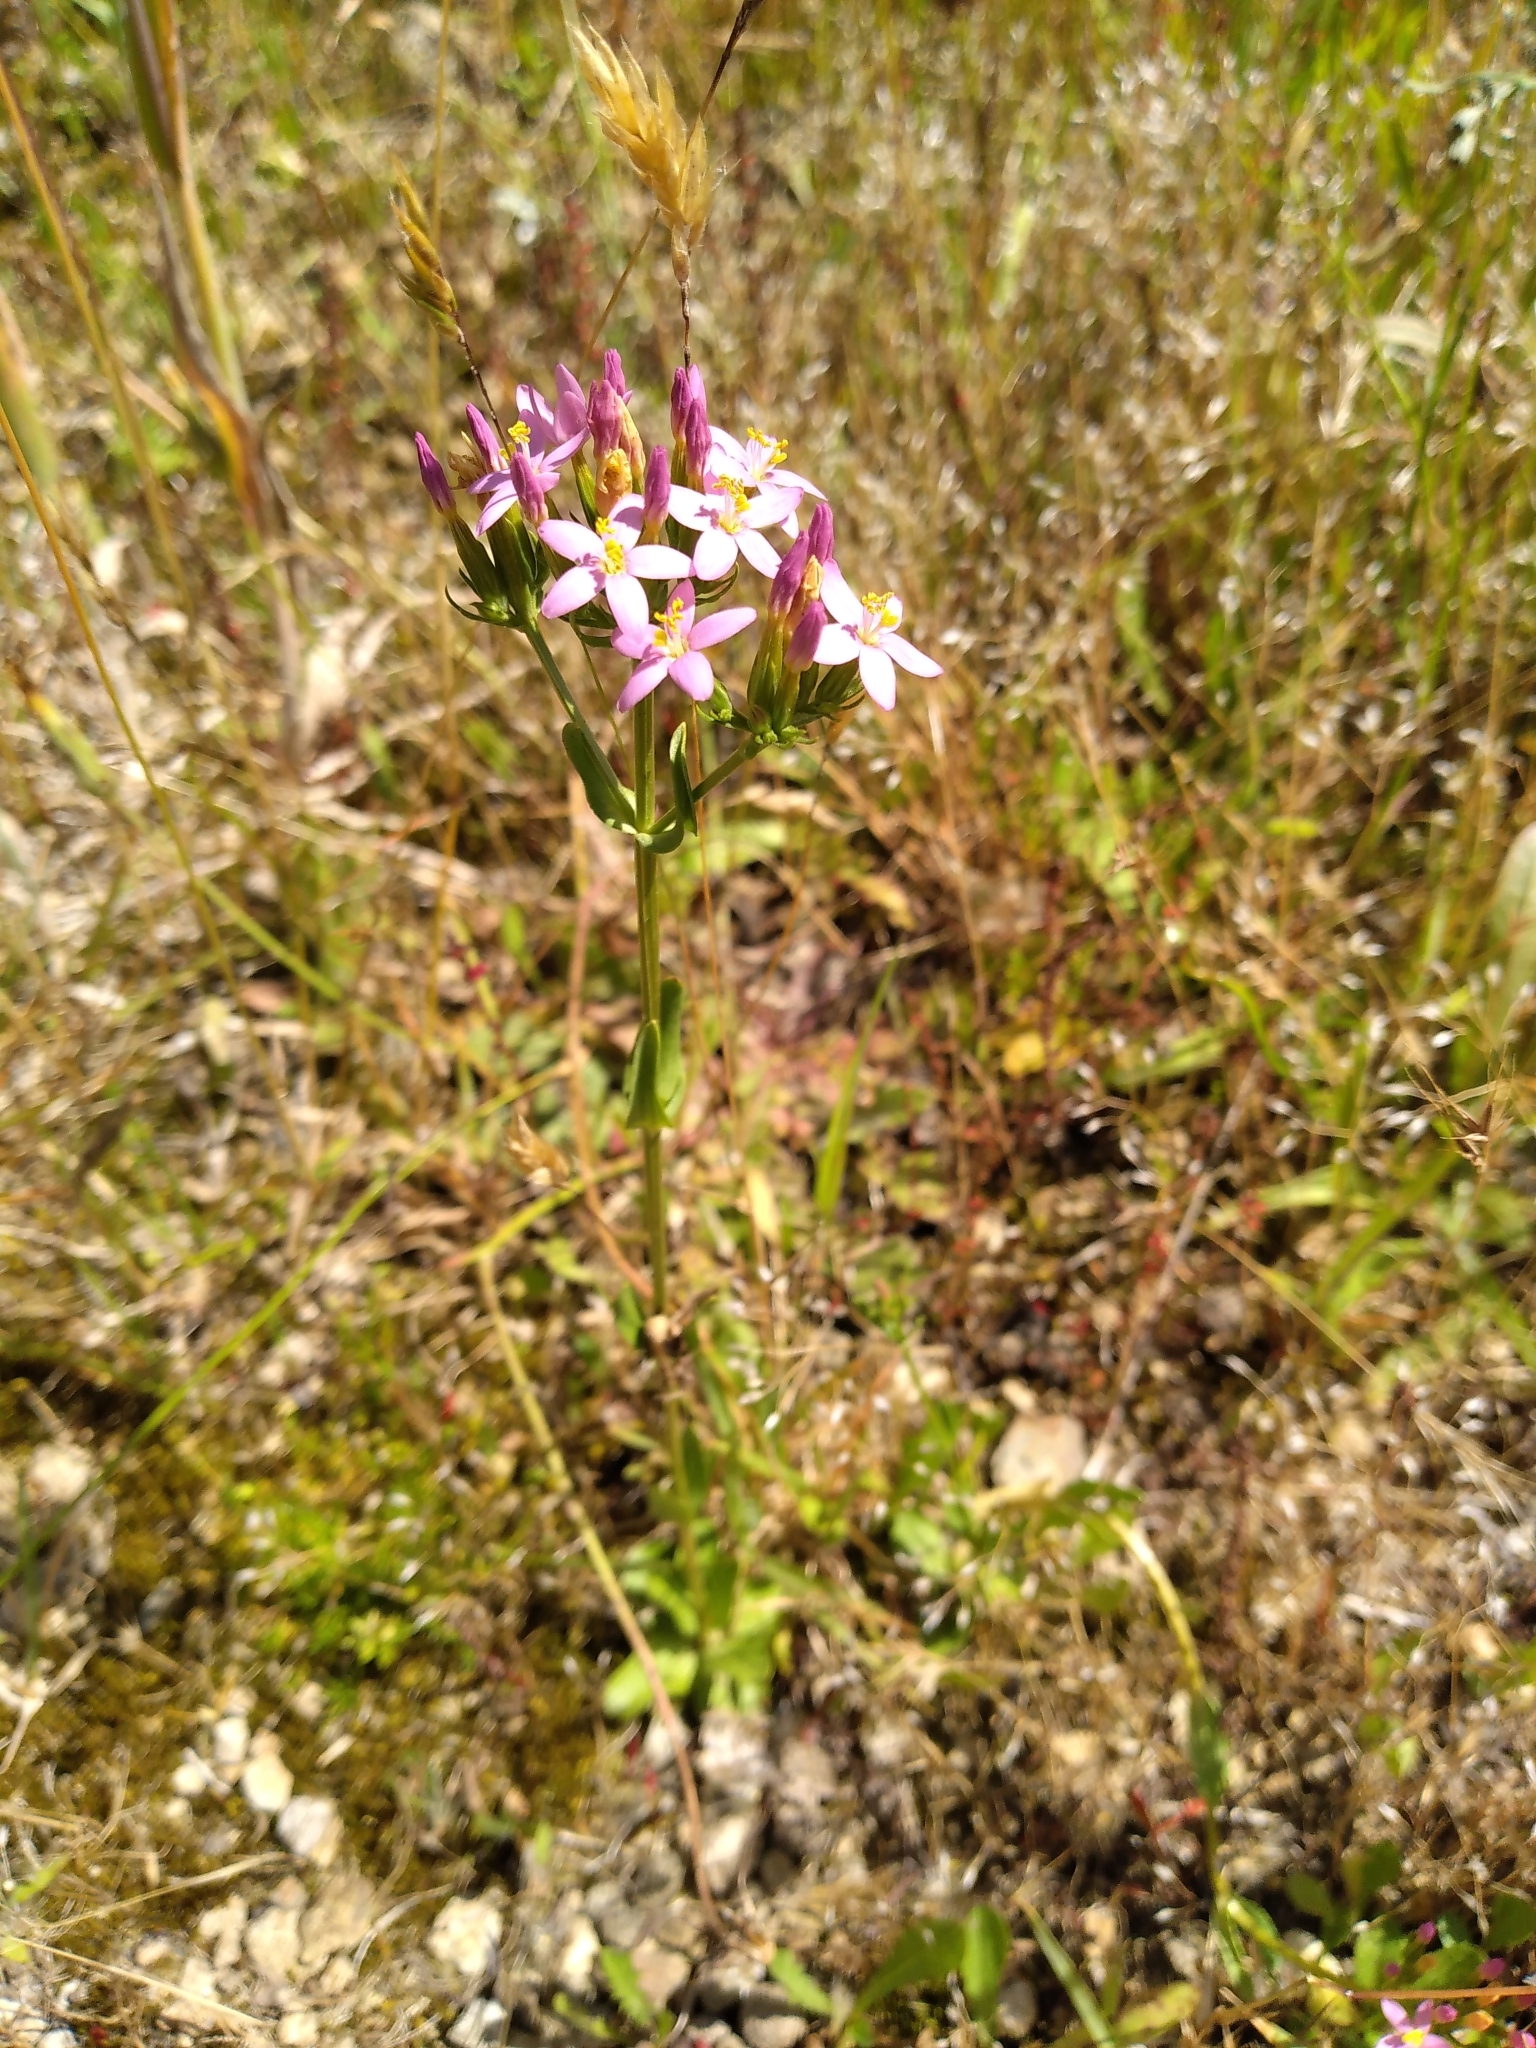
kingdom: Plantae
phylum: Tracheophyta
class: Magnoliopsida
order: Gentianales
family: Gentianaceae
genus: Centaurium
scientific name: Centaurium erythraea
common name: Common centaury
